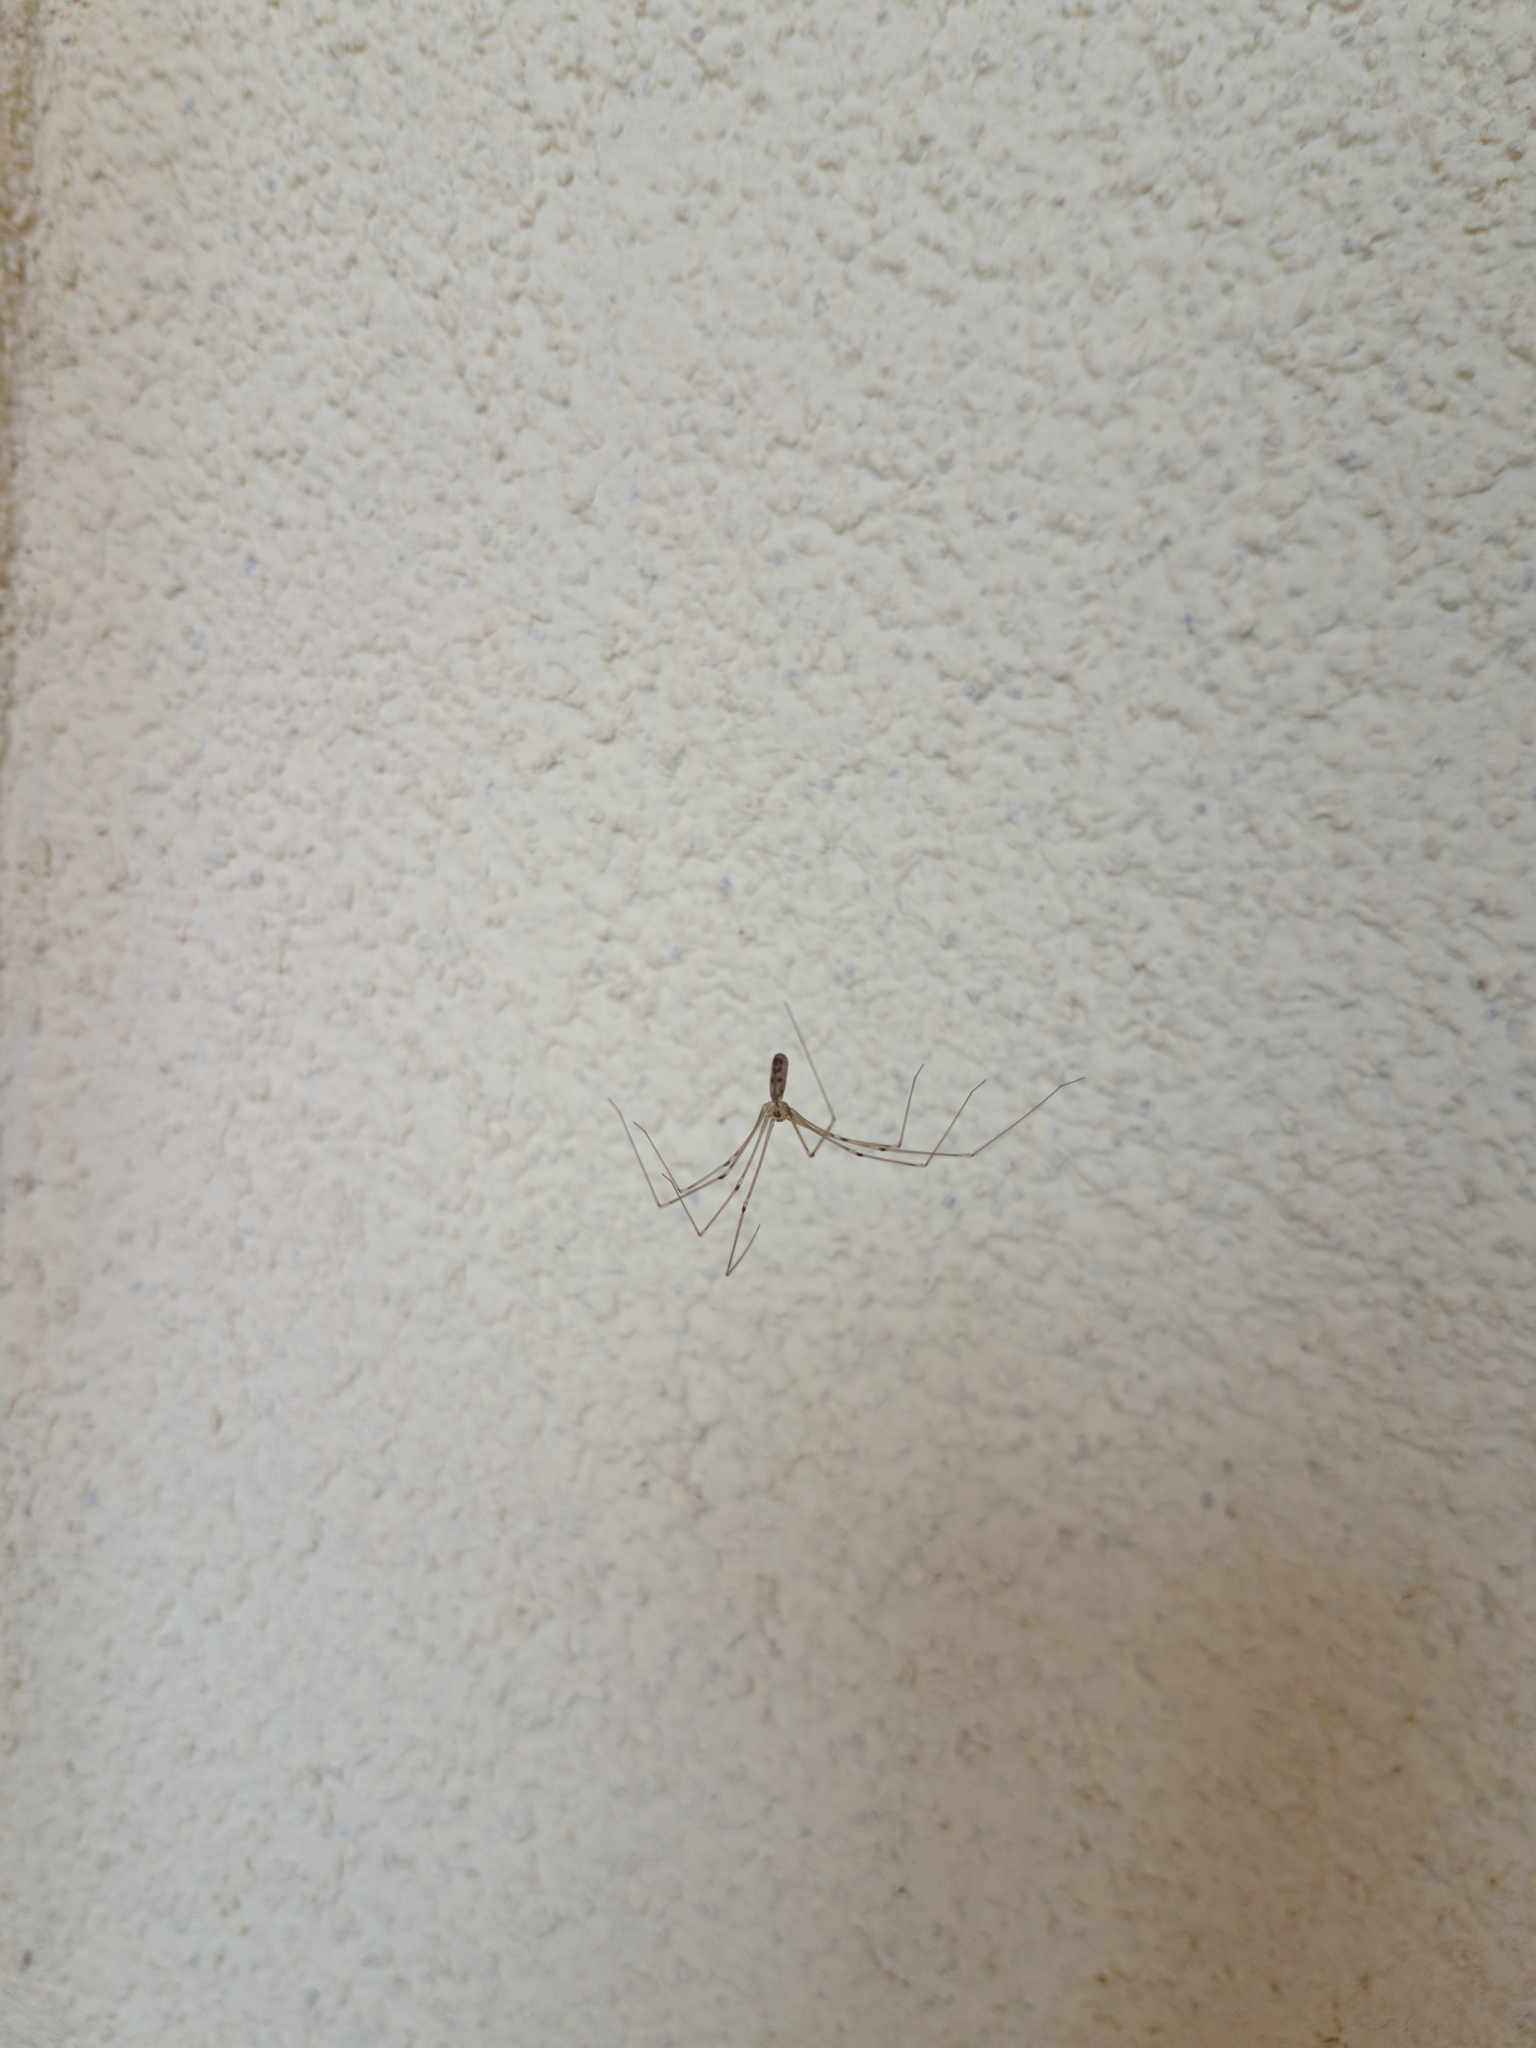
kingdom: Animalia
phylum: Arthropoda
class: Arachnida
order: Araneae
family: Pholcidae
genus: Pholcus
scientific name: Pholcus phalangioides
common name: Longbodied cellar spider
